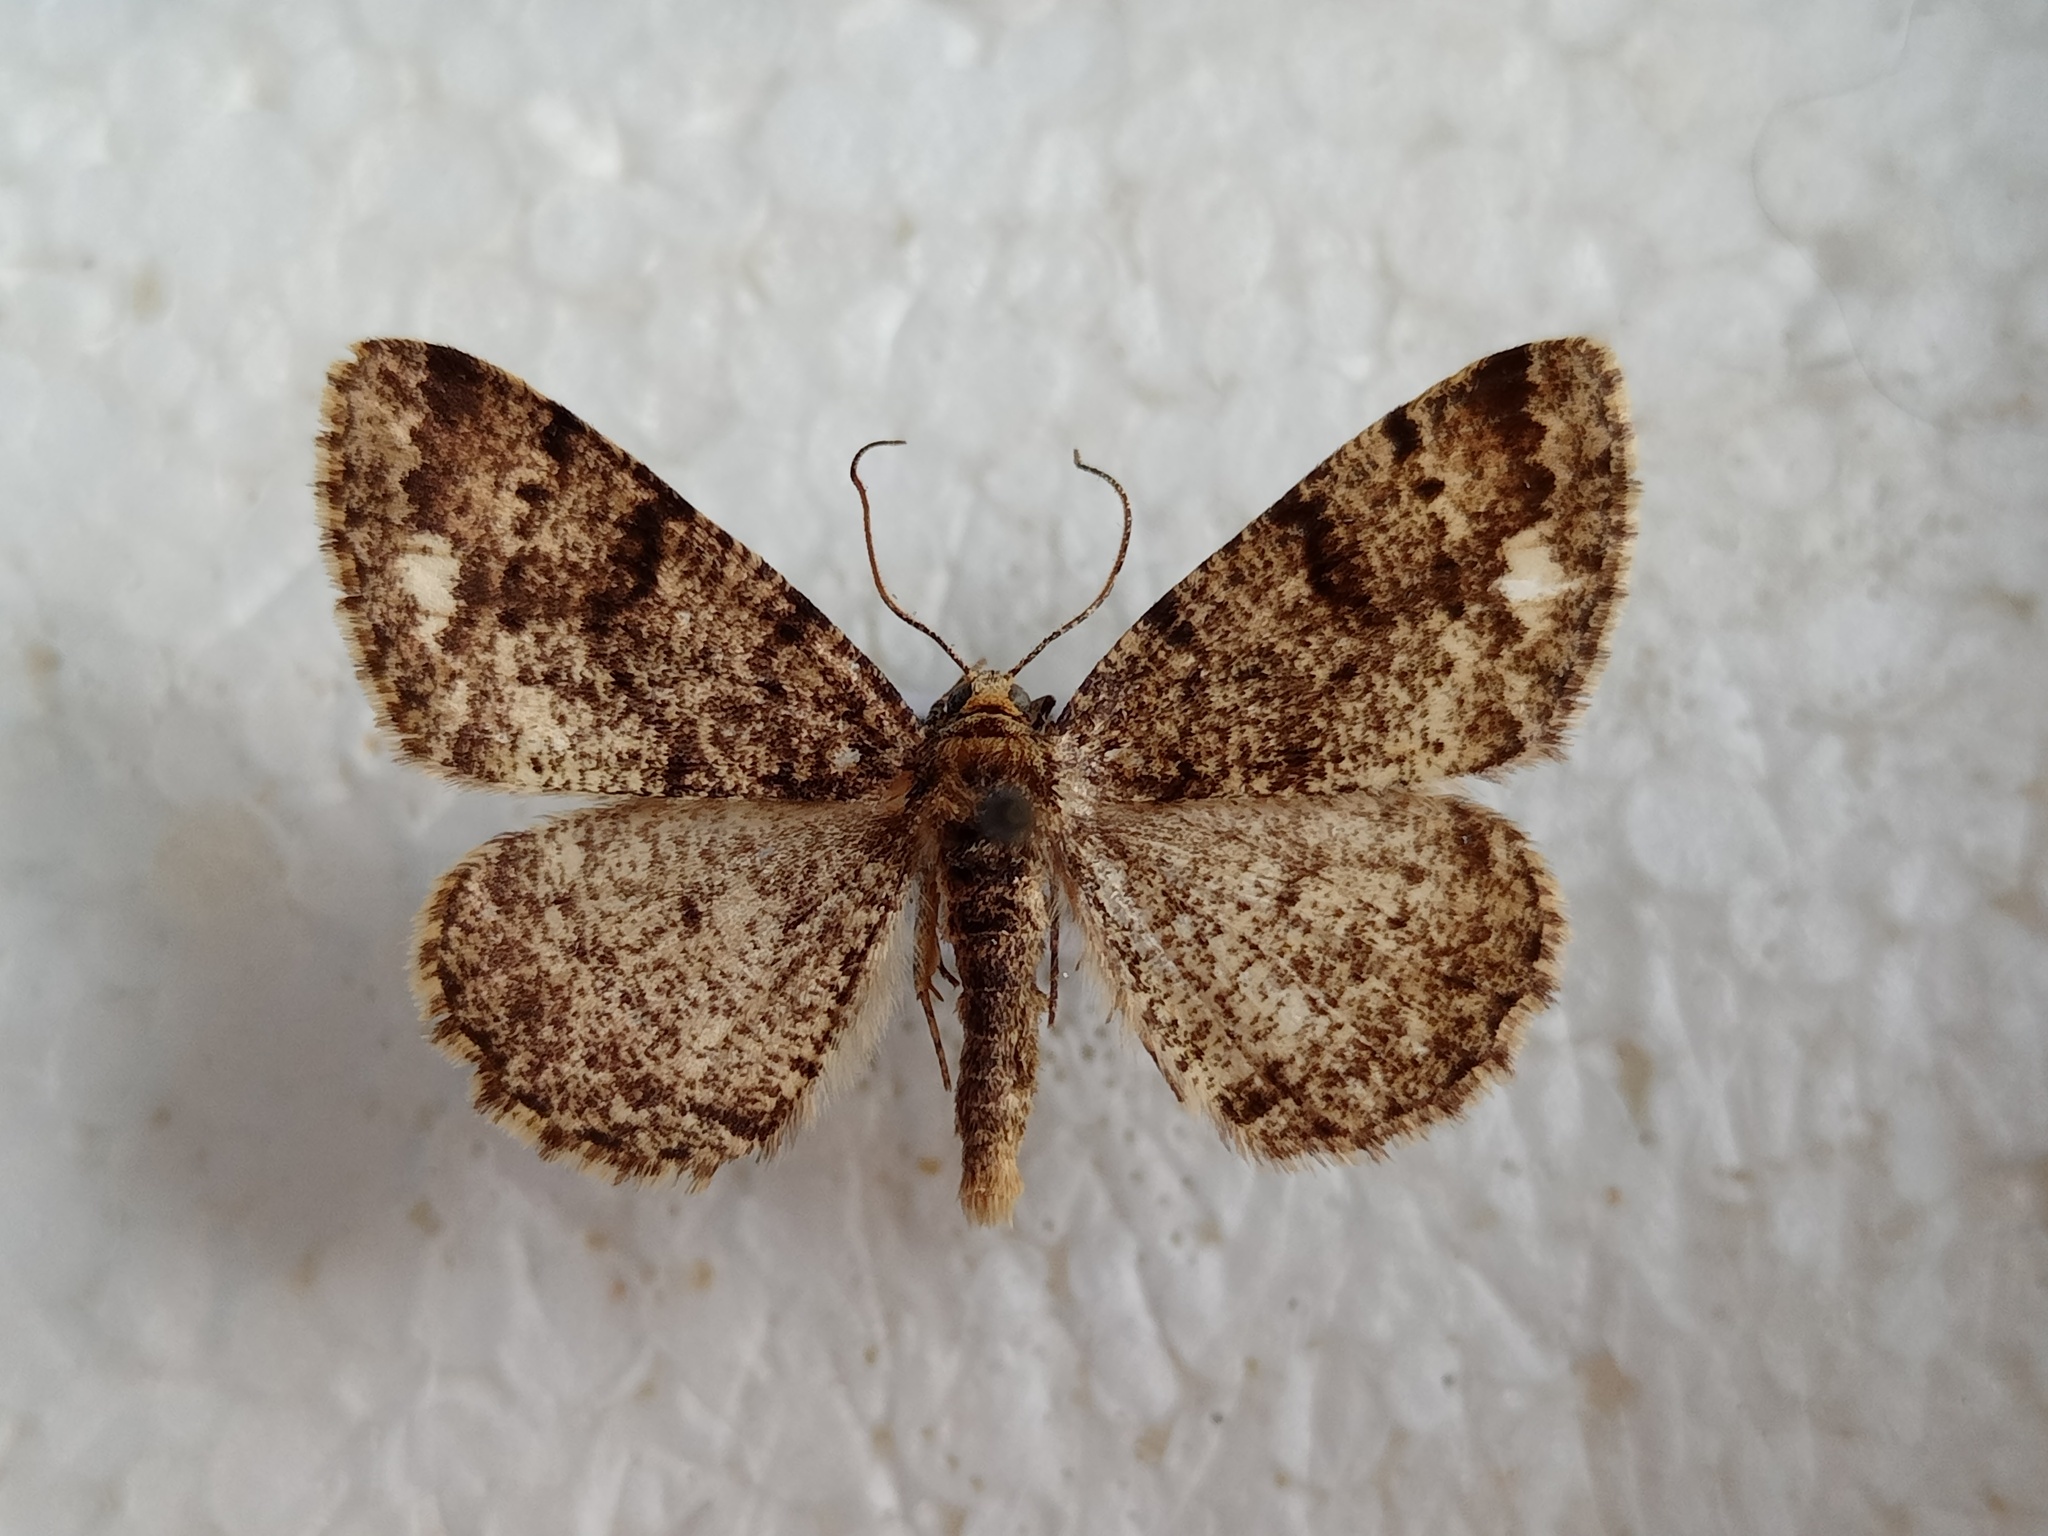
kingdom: Animalia
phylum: Arthropoda
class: Insecta
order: Lepidoptera
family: Geometridae
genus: Parectropis
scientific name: Parectropis similaria
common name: Brindled white-spot
